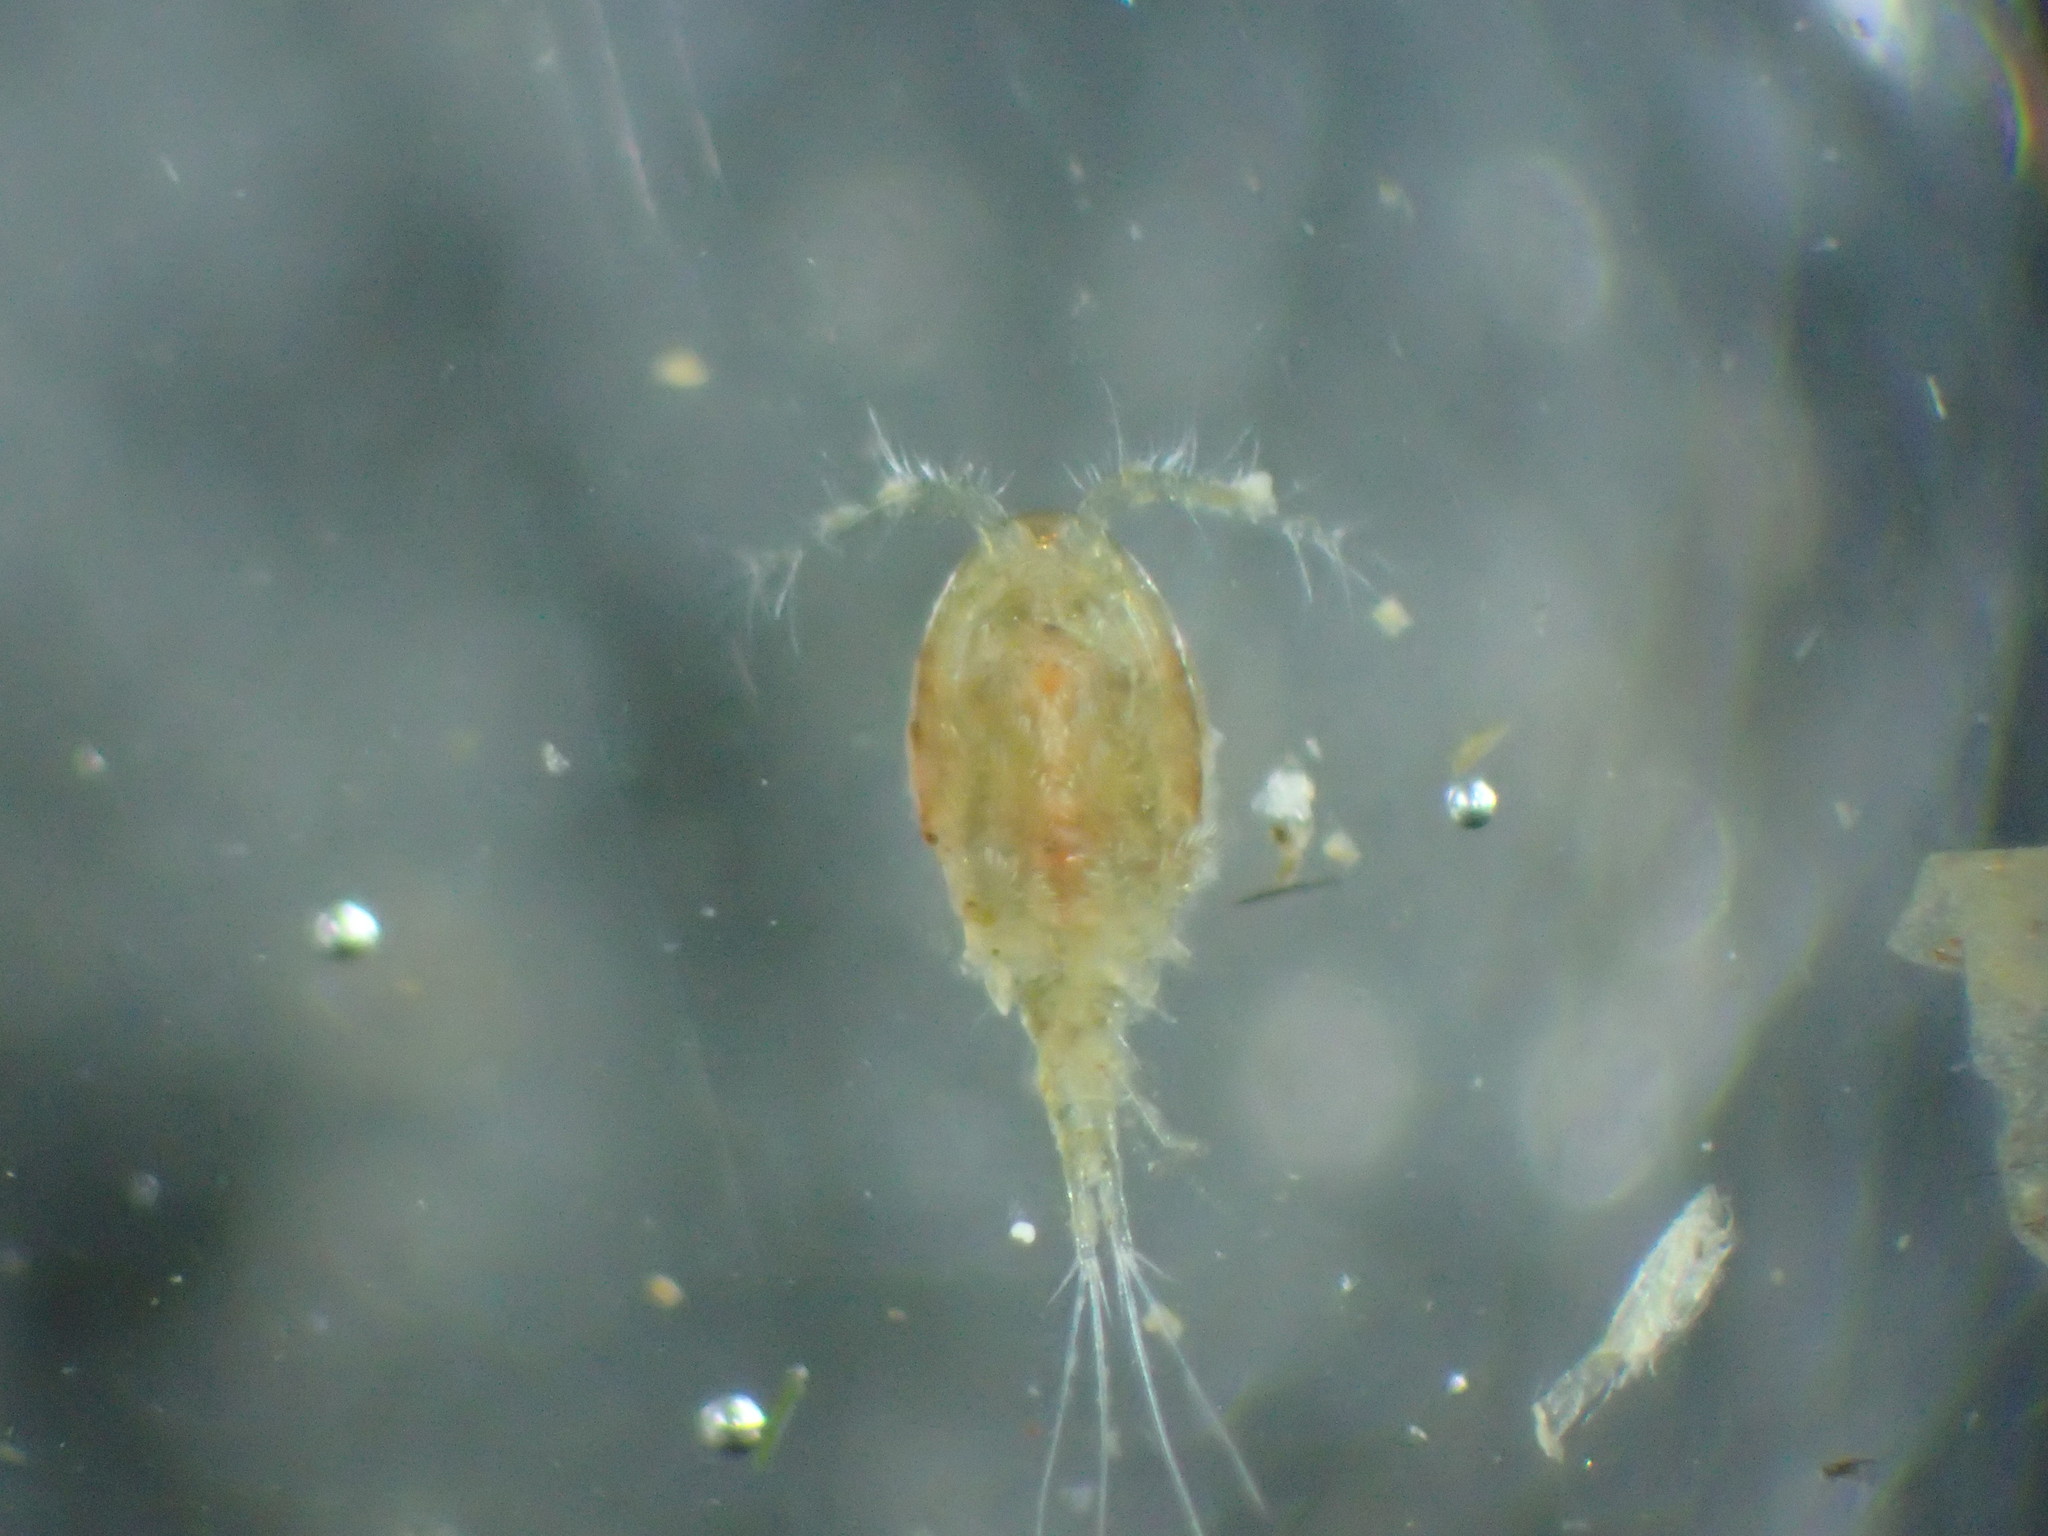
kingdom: Animalia
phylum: Arthropoda
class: Copepoda
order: Cyclopoida
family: Cyclopidae
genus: Acanthocyclops
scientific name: Acanthocyclops capillatus
